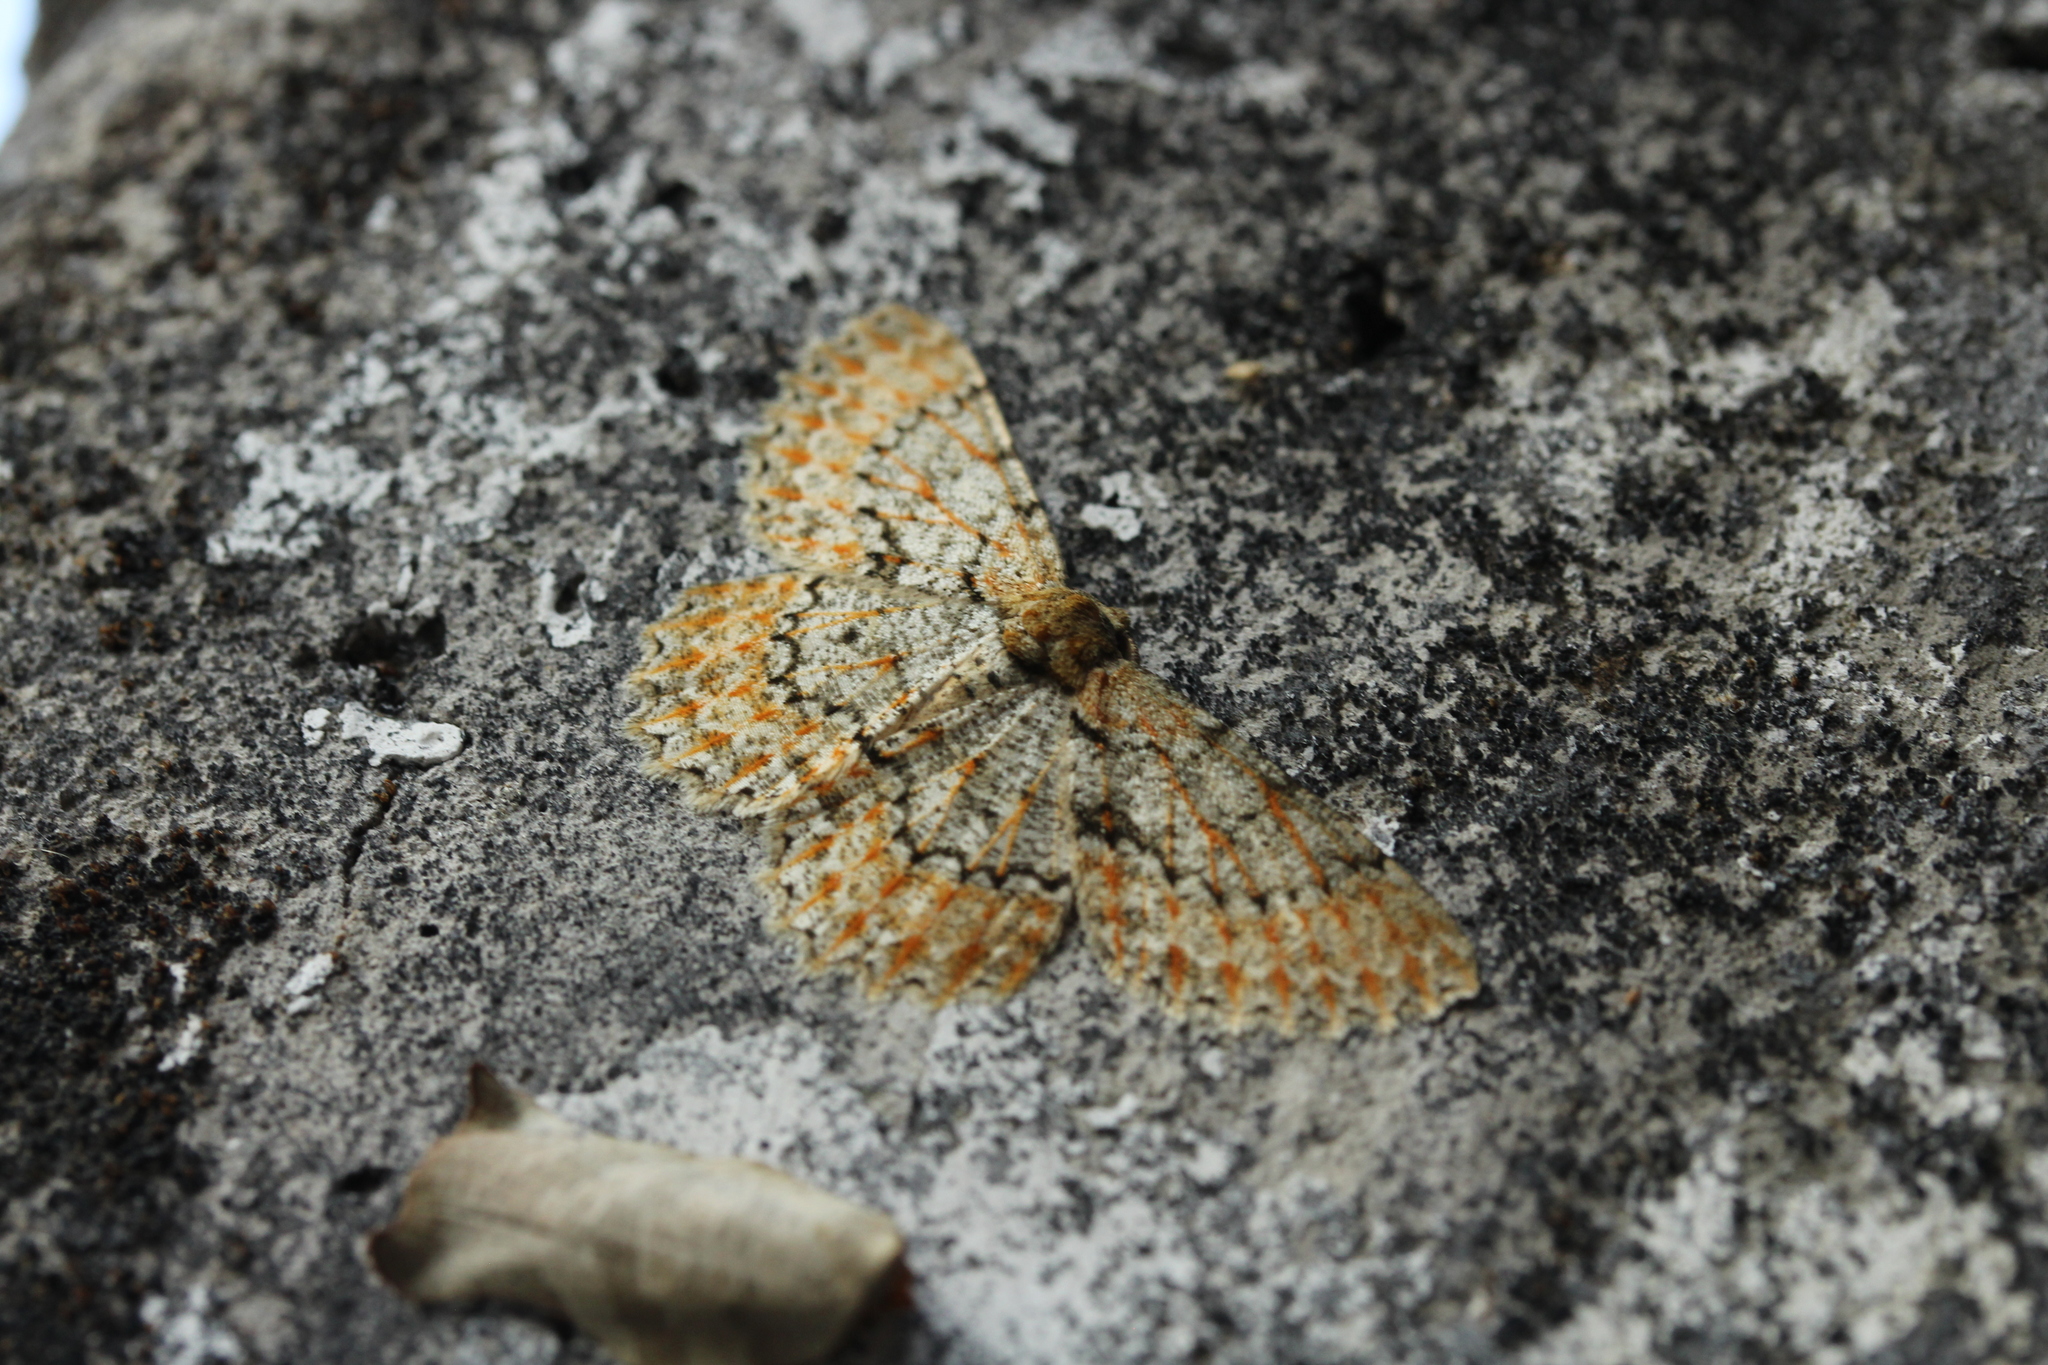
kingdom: Animalia
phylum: Arthropoda
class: Insecta
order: Lepidoptera
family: Geometridae
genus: Hypomecis
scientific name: Hypomecis laeca
